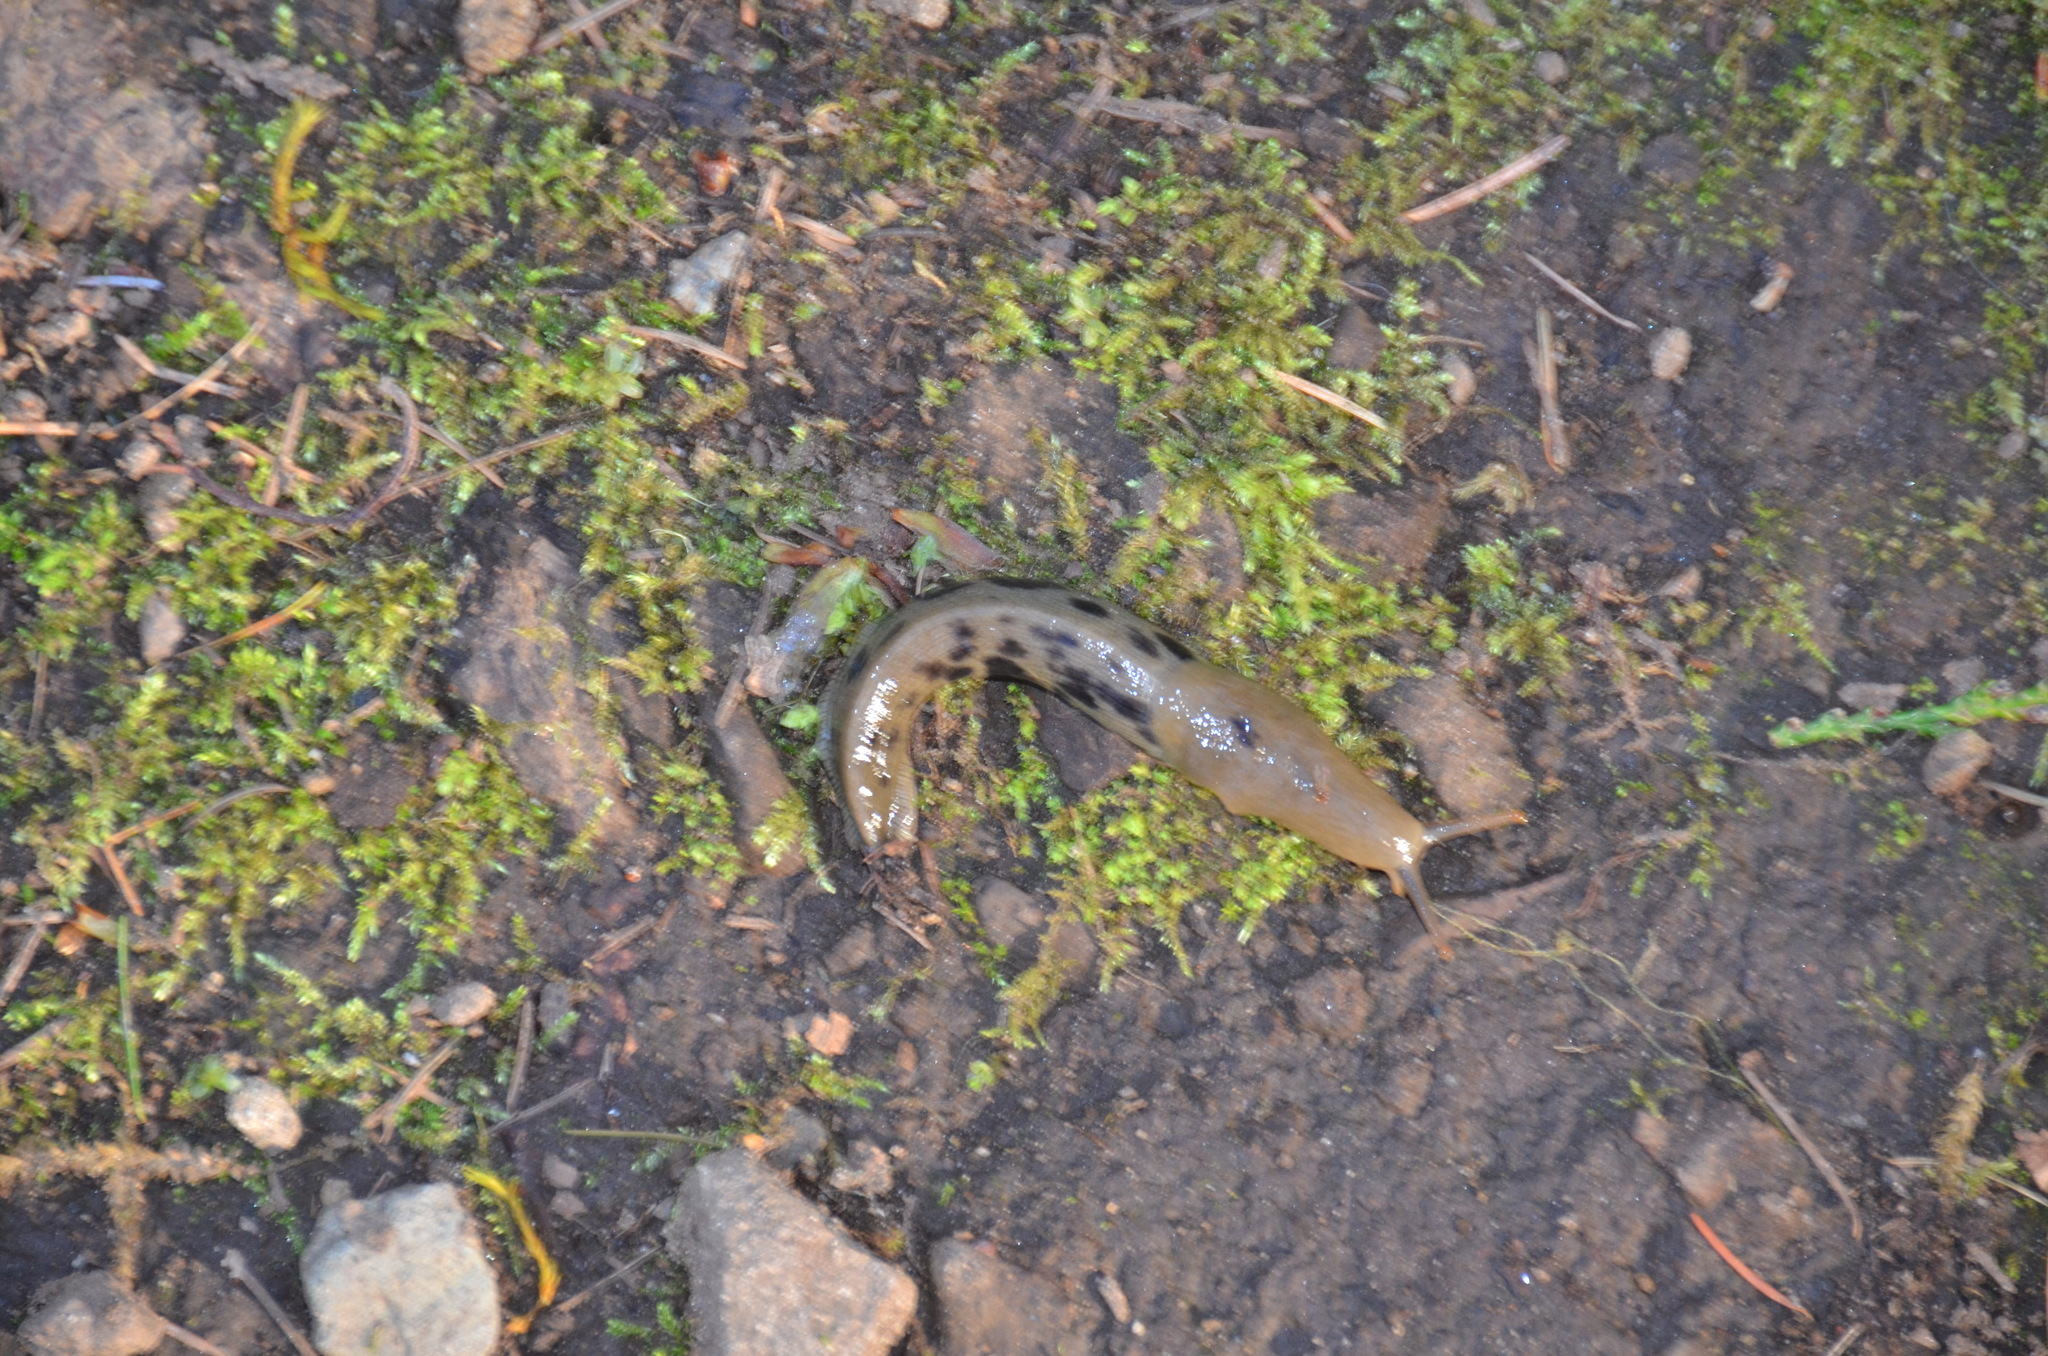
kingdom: Animalia
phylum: Mollusca
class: Gastropoda
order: Stylommatophora
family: Ariolimacidae
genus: Ariolimax
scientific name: Ariolimax columbianus
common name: Pacific banana slug
